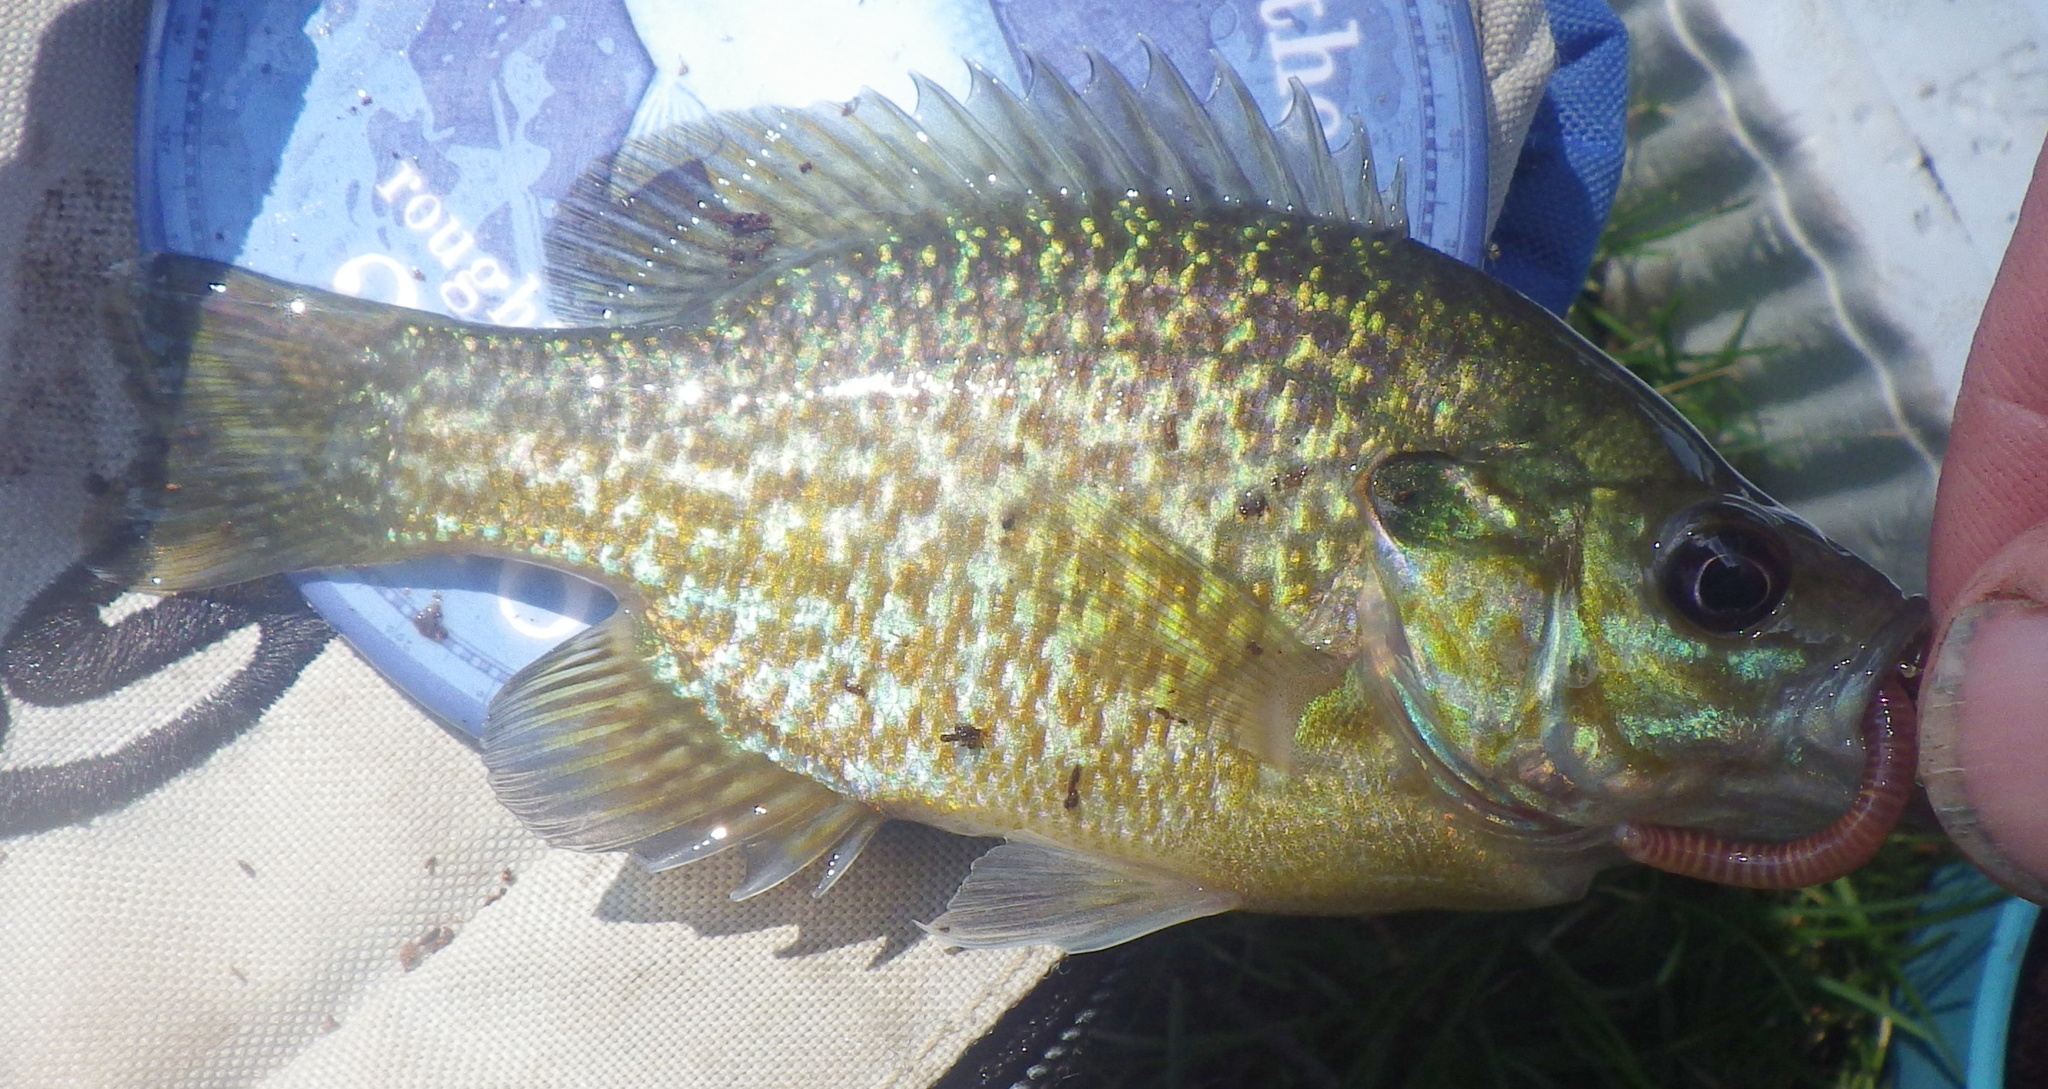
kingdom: Animalia
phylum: Chordata
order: Perciformes
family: Centrarchidae
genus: Lepomis
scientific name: Lepomis
